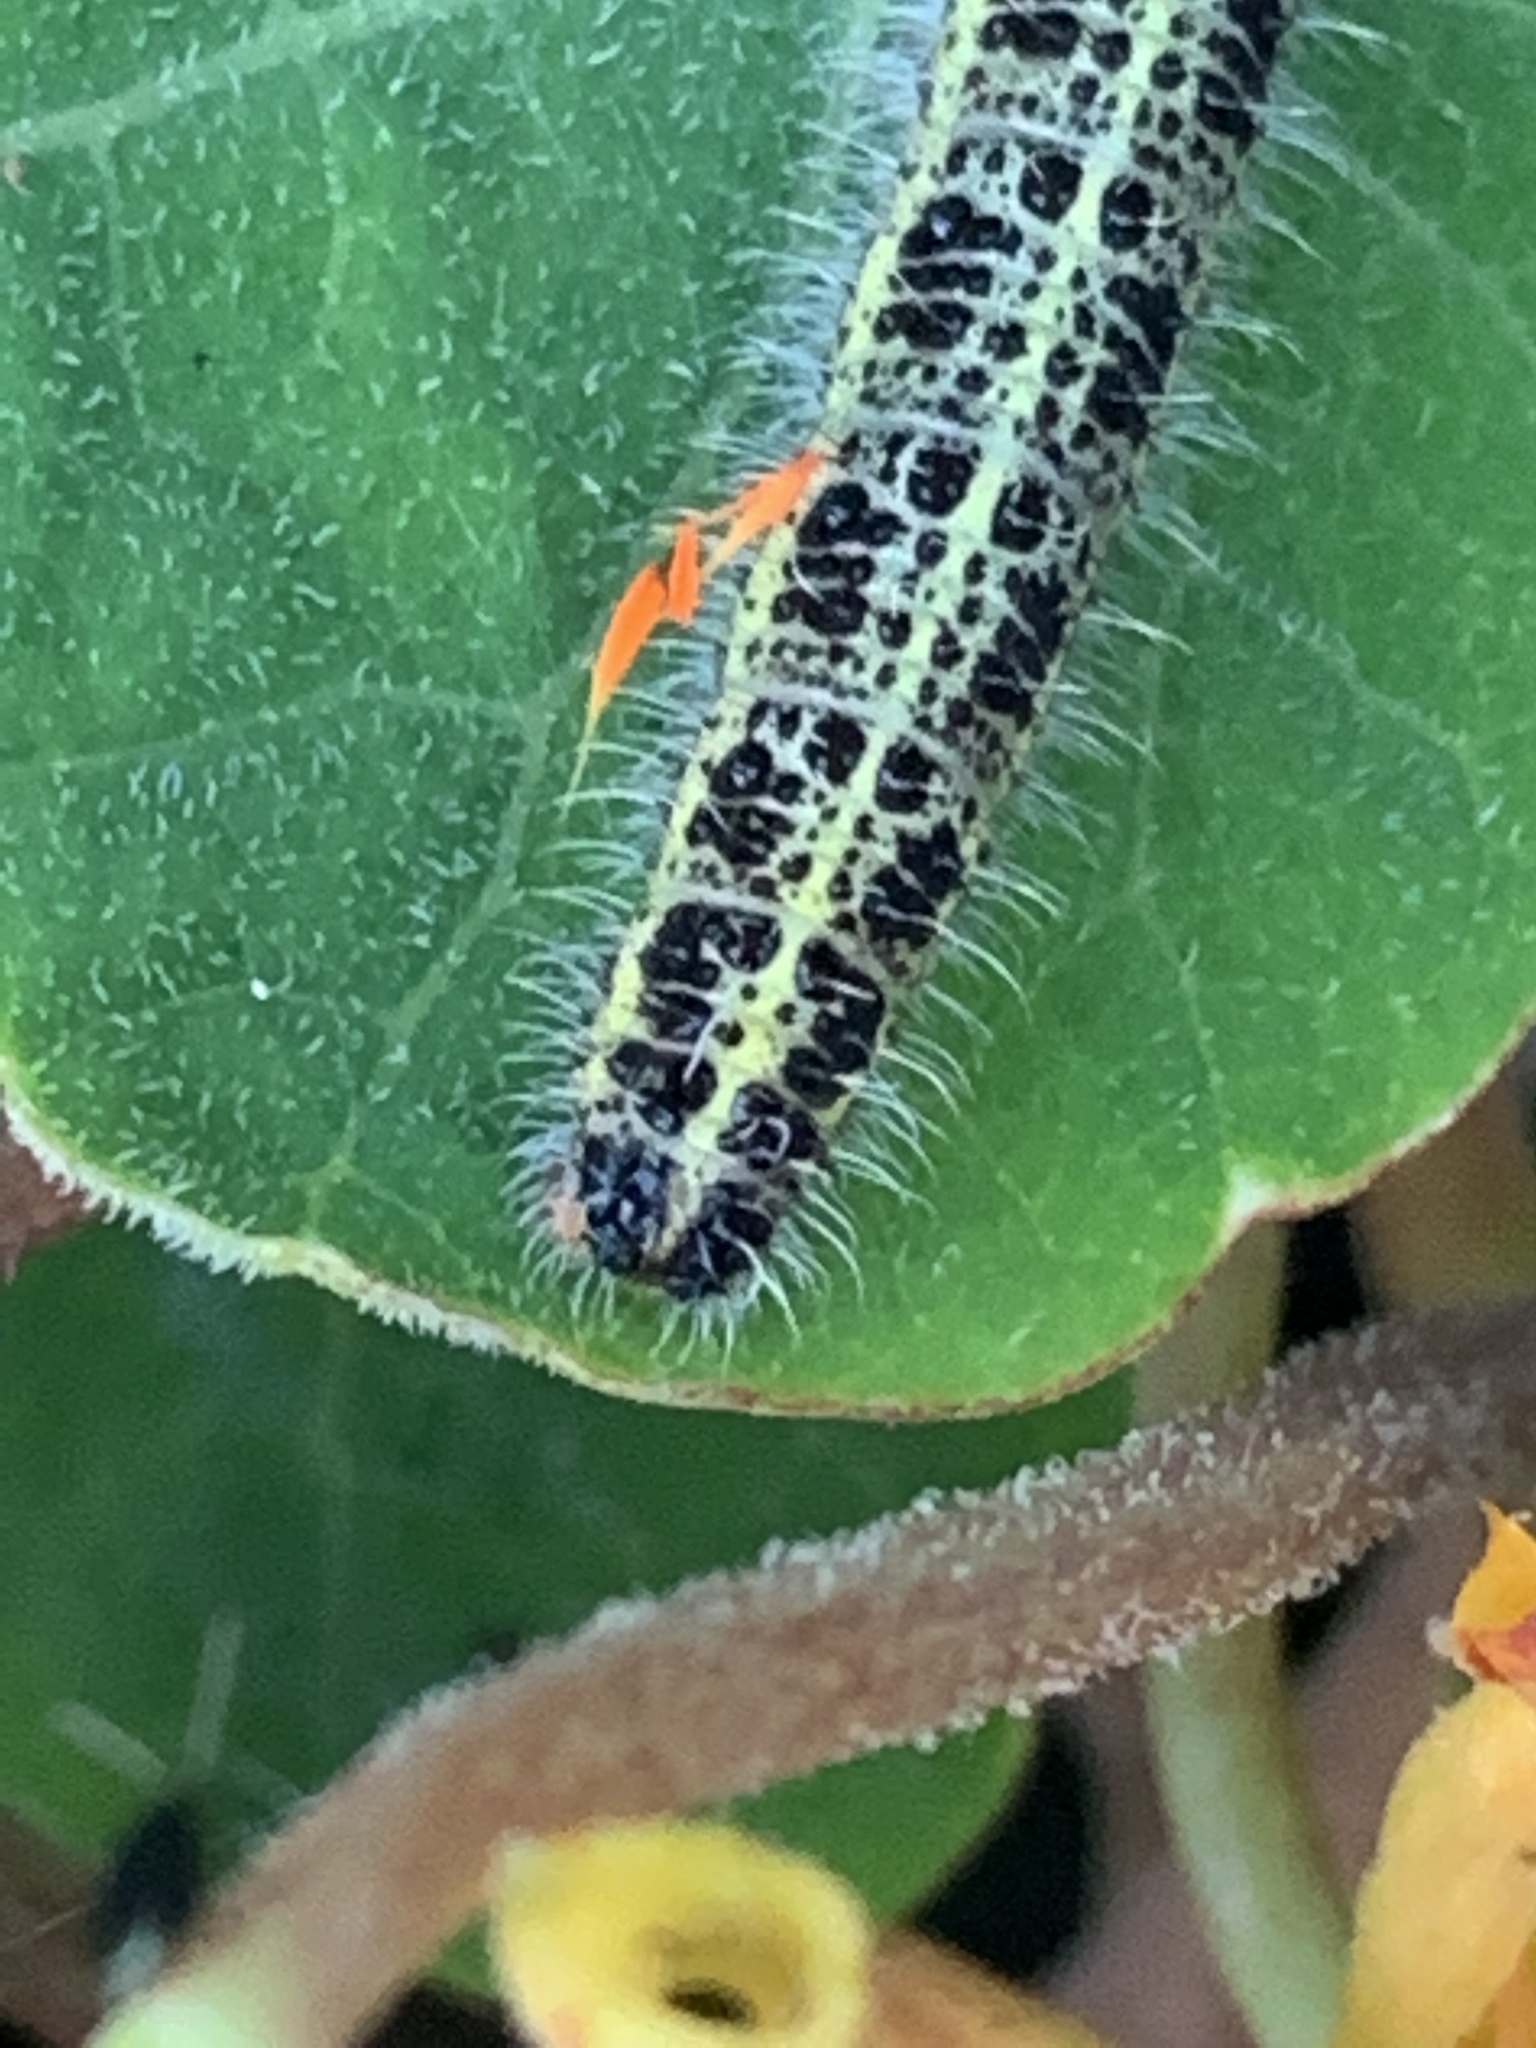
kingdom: Animalia
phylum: Arthropoda
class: Insecta
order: Lepidoptera
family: Pieridae
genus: Pieris
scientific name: Pieris brassicae
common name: Large white
